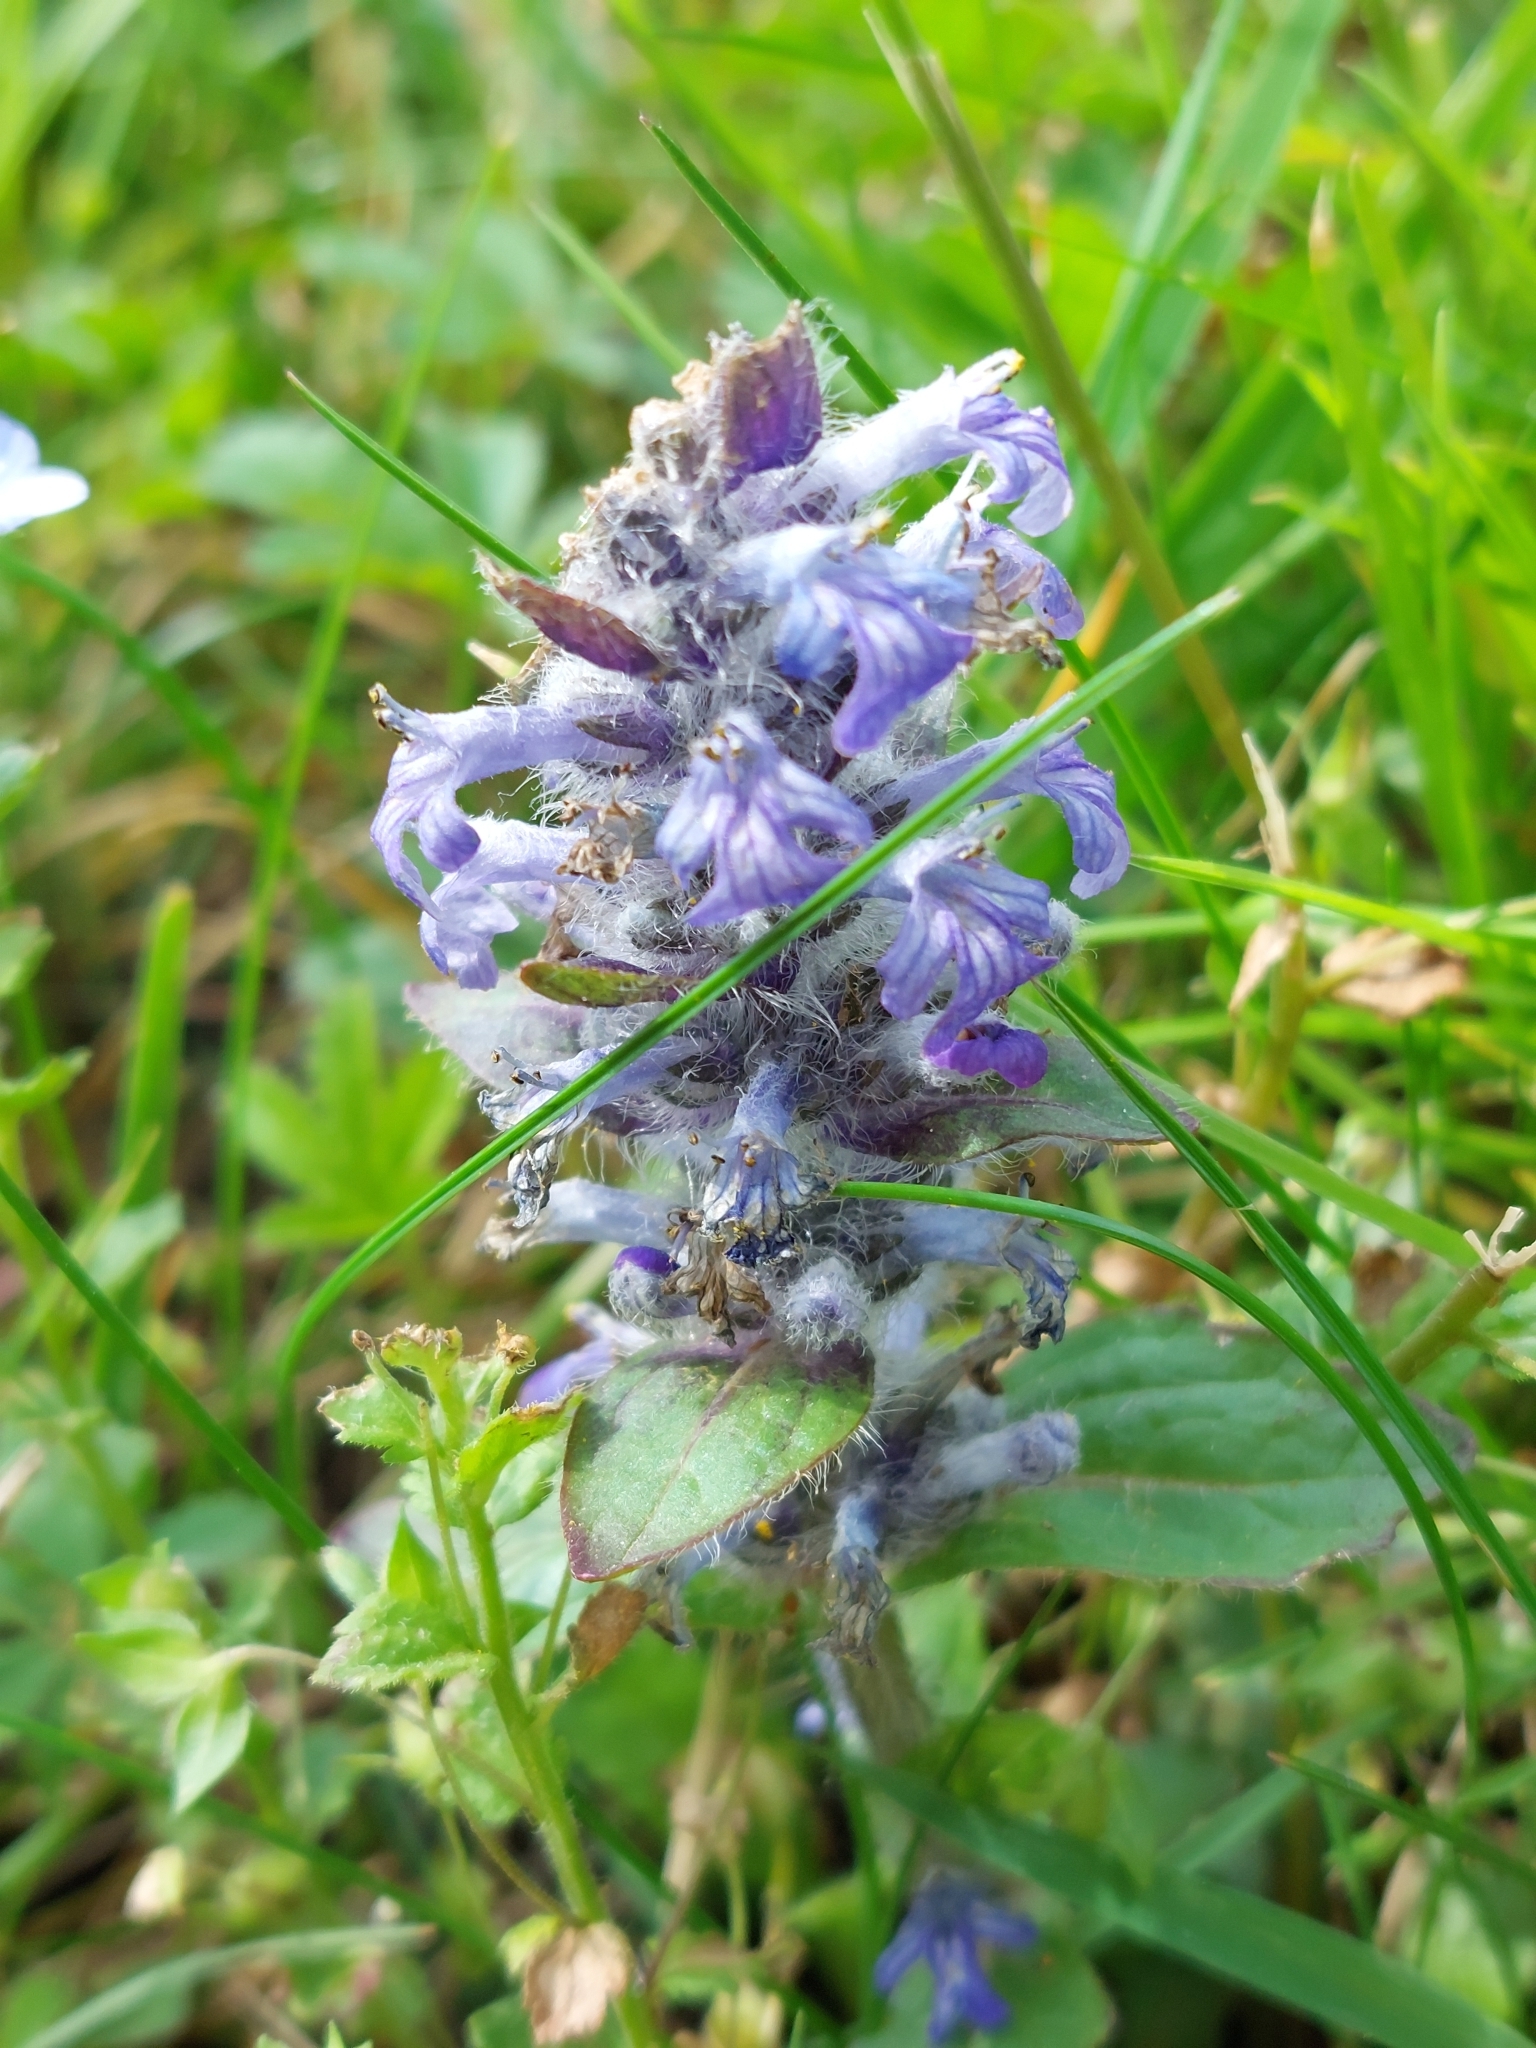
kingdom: Plantae
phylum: Tracheophyta
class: Magnoliopsida
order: Lamiales
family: Lamiaceae
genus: Ajuga
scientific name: Ajuga reptans
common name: Bugle
